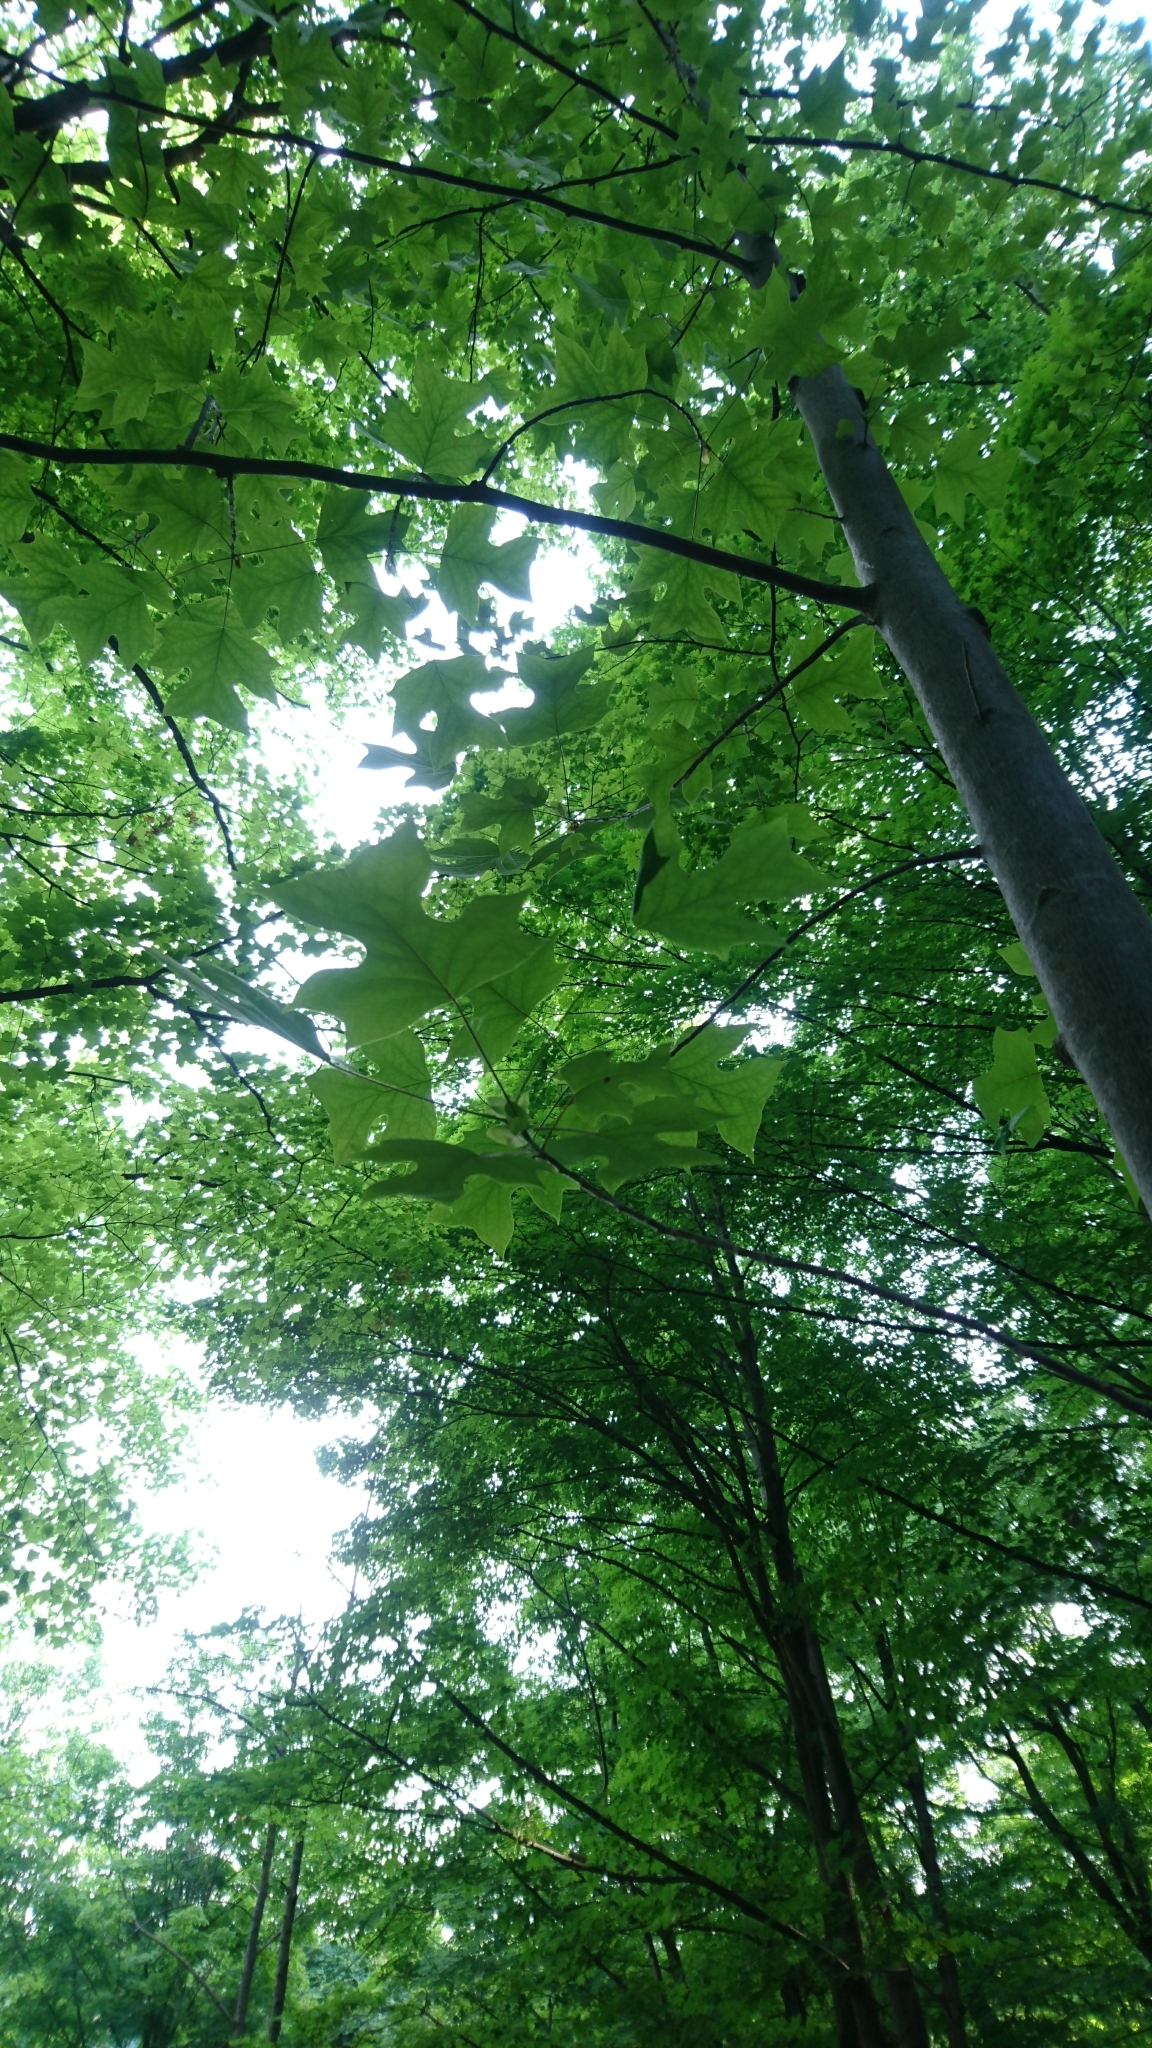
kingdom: Plantae
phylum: Tracheophyta
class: Magnoliopsida
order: Magnoliales
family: Magnoliaceae
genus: Liriodendron
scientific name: Liriodendron tulipifera
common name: Tulip tree
